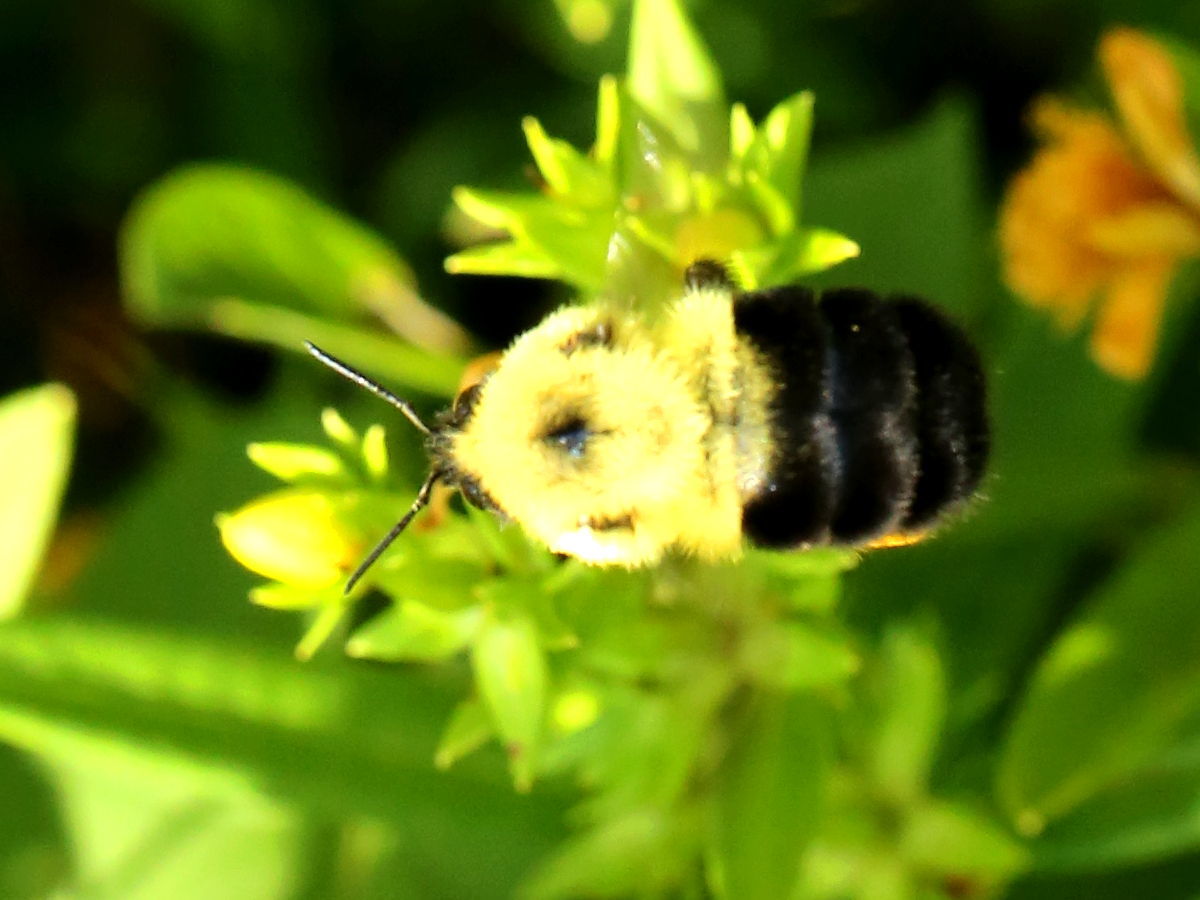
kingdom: Animalia
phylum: Arthropoda
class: Insecta
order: Hymenoptera
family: Apidae
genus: Bombus
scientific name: Bombus bimaculatus
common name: Two-spotted bumble bee
